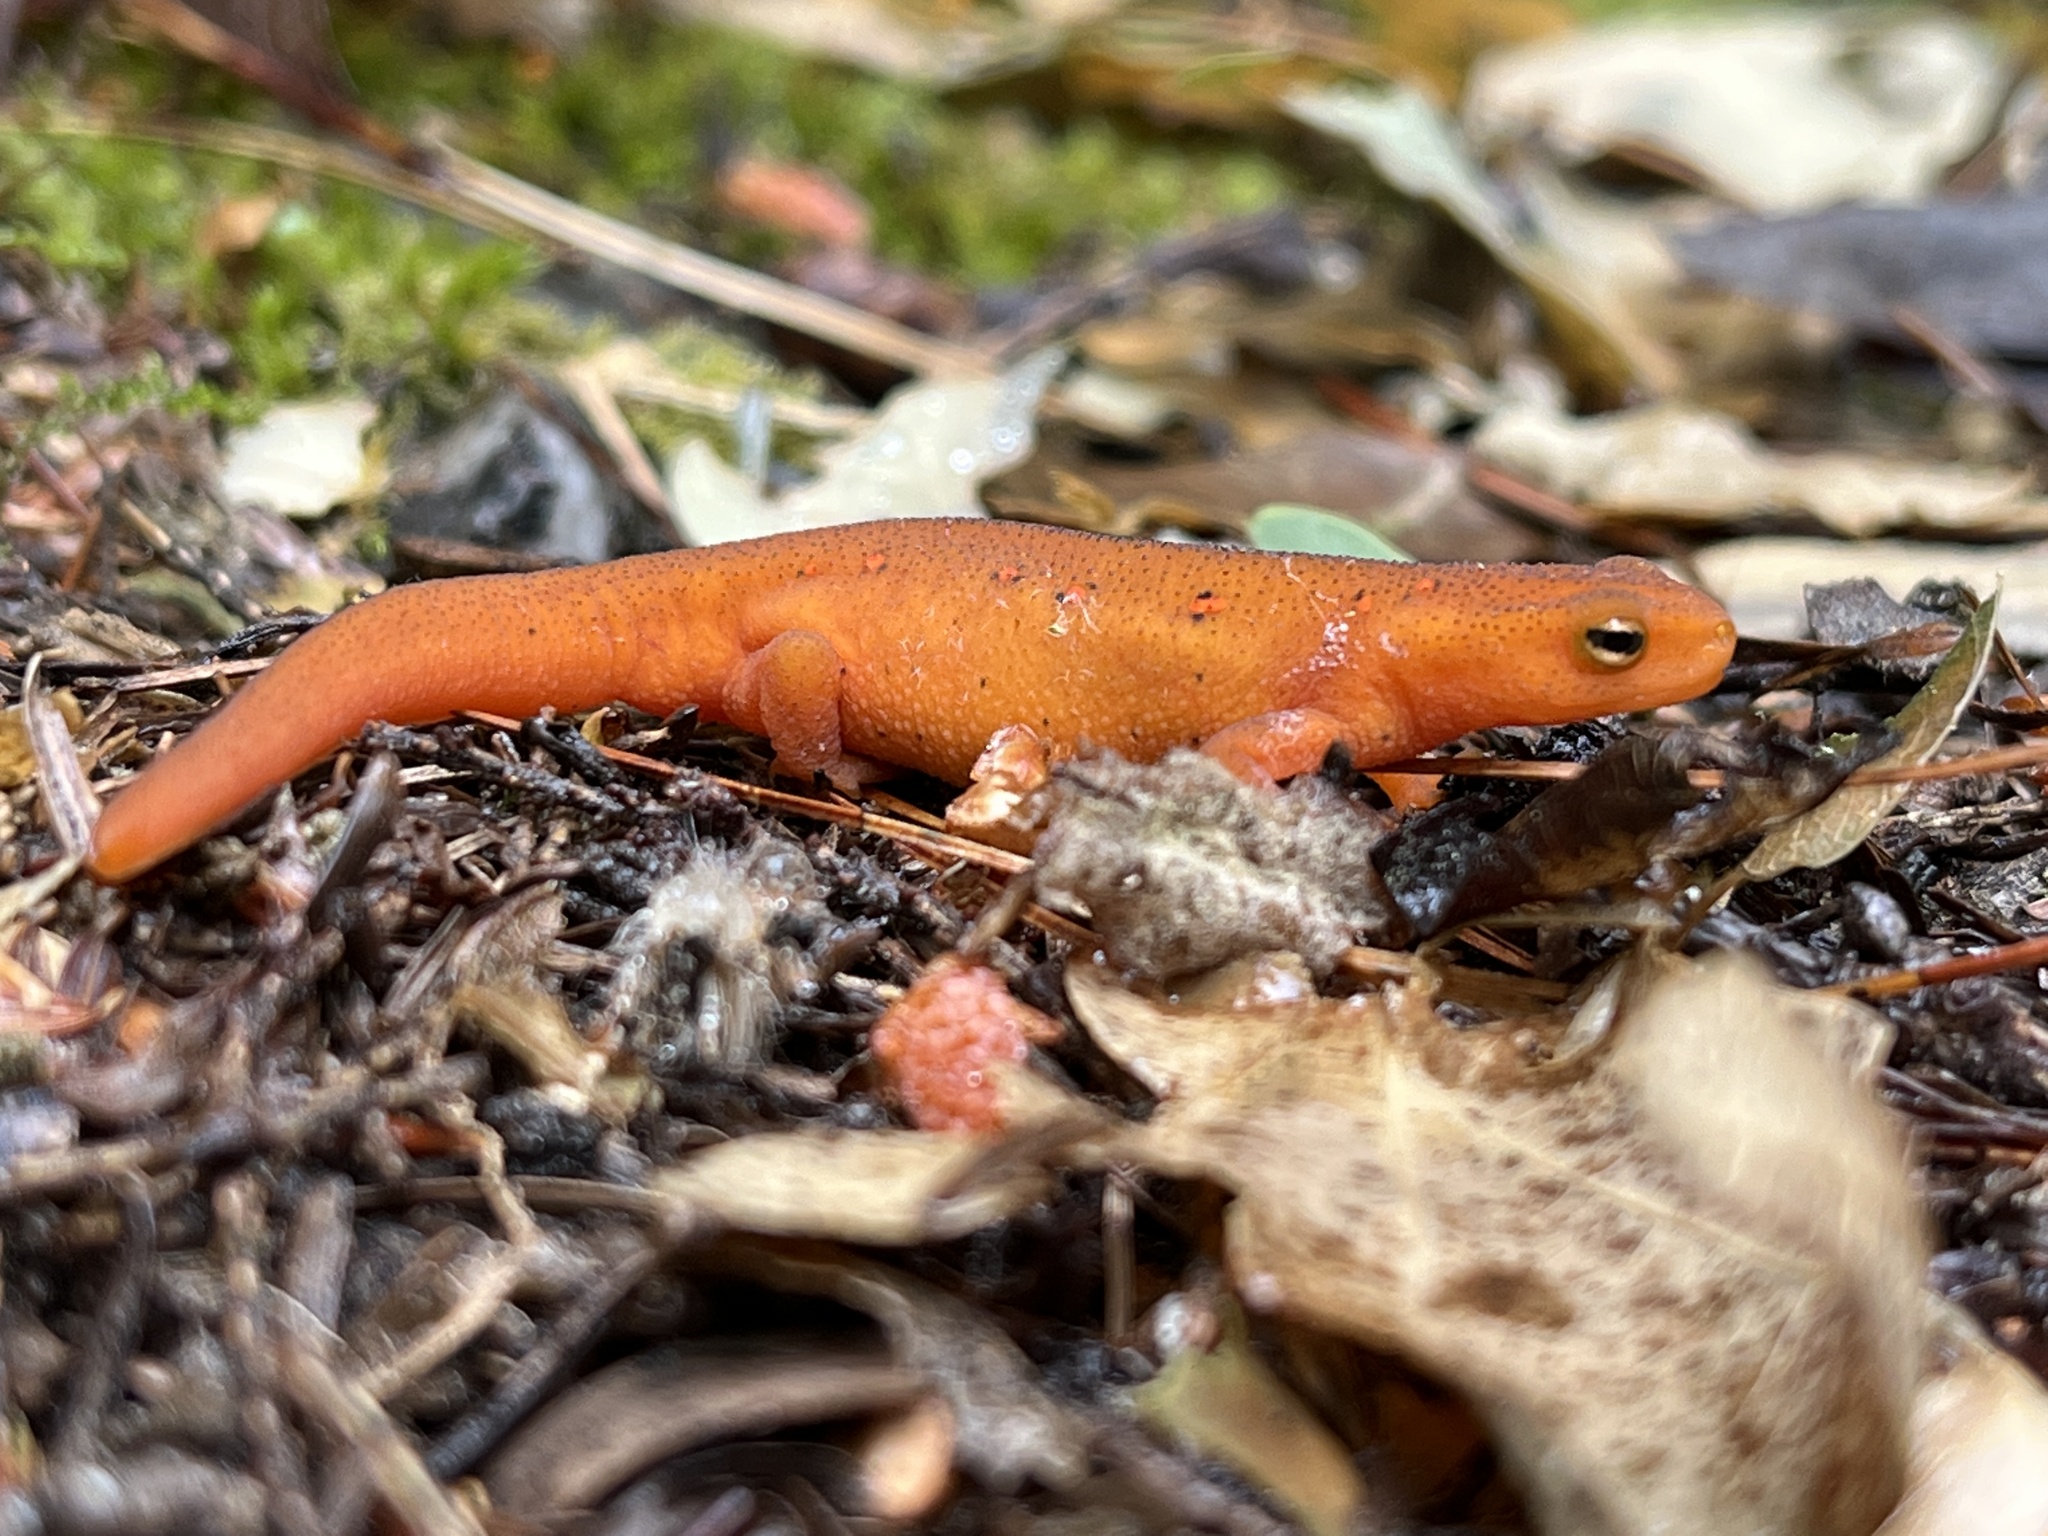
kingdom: Animalia
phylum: Chordata
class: Amphibia
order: Caudata
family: Salamandridae
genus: Notophthalmus
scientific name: Notophthalmus viridescens
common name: Eastern newt
